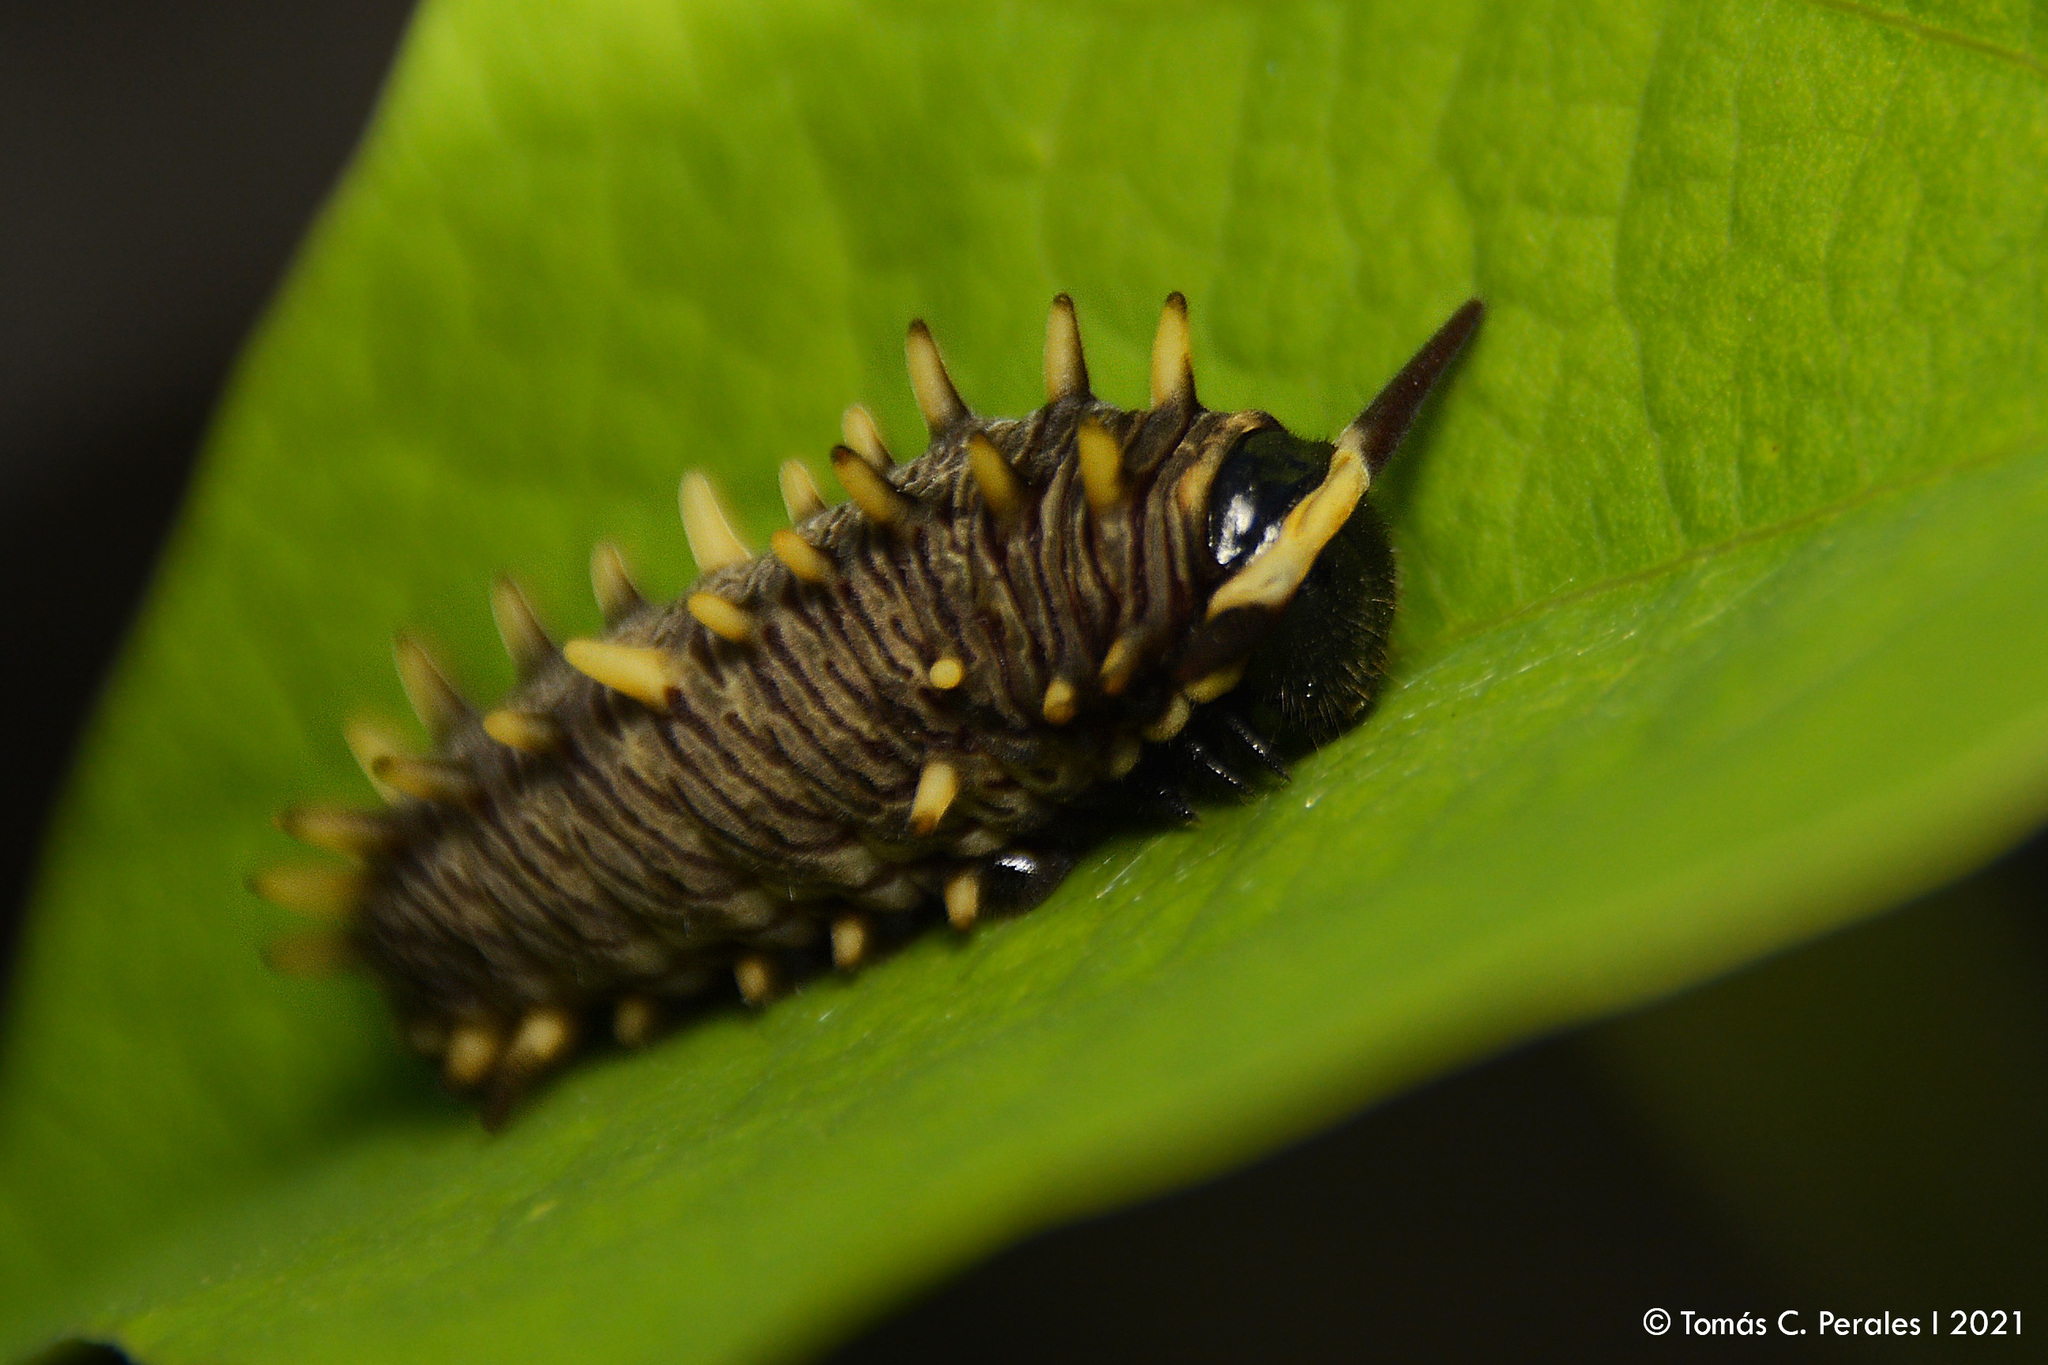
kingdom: Animalia
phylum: Arthropoda
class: Insecta
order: Lepidoptera
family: Papilionidae
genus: Battus
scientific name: Battus polydamas
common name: Polydamas swallowtail
